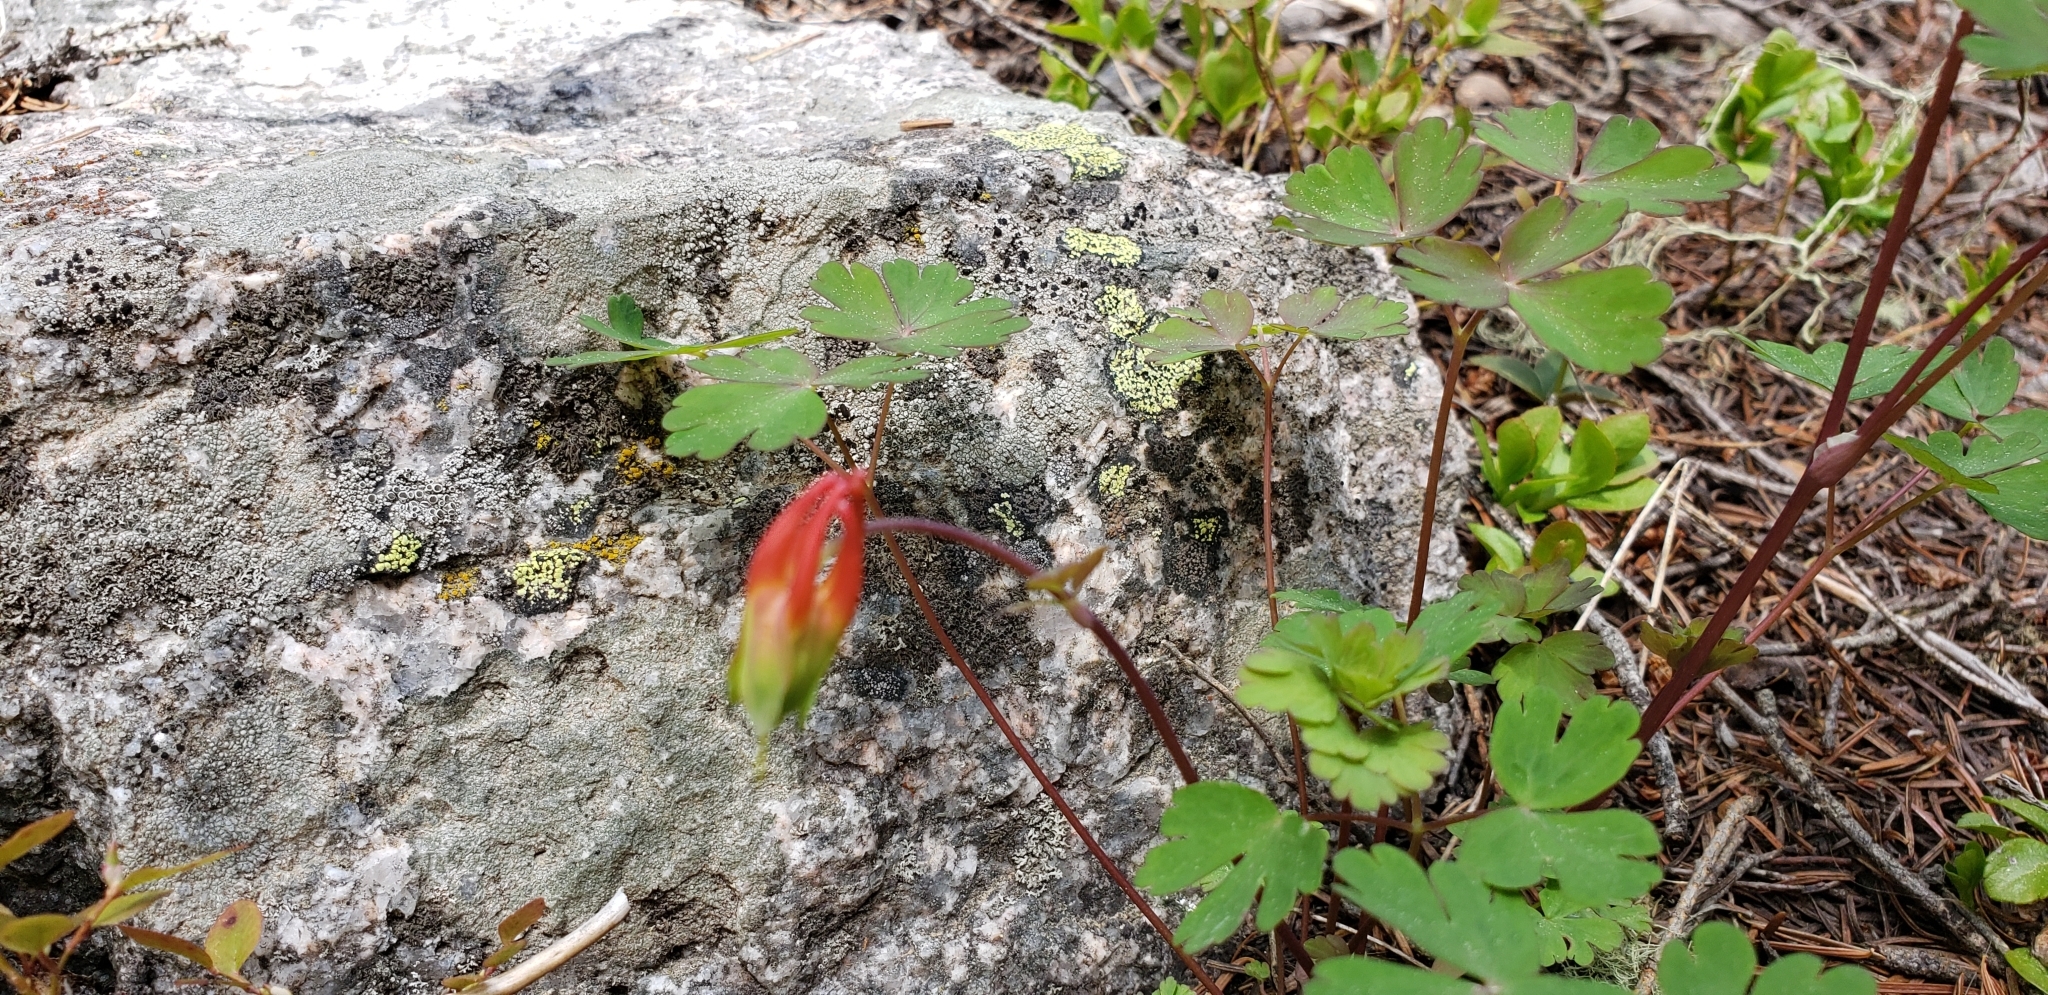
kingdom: Plantae
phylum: Tracheophyta
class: Magnoliopsida
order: Ranunculales
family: Ranunculaceae
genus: Aquilegia
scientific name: Aquilegia elegantula
